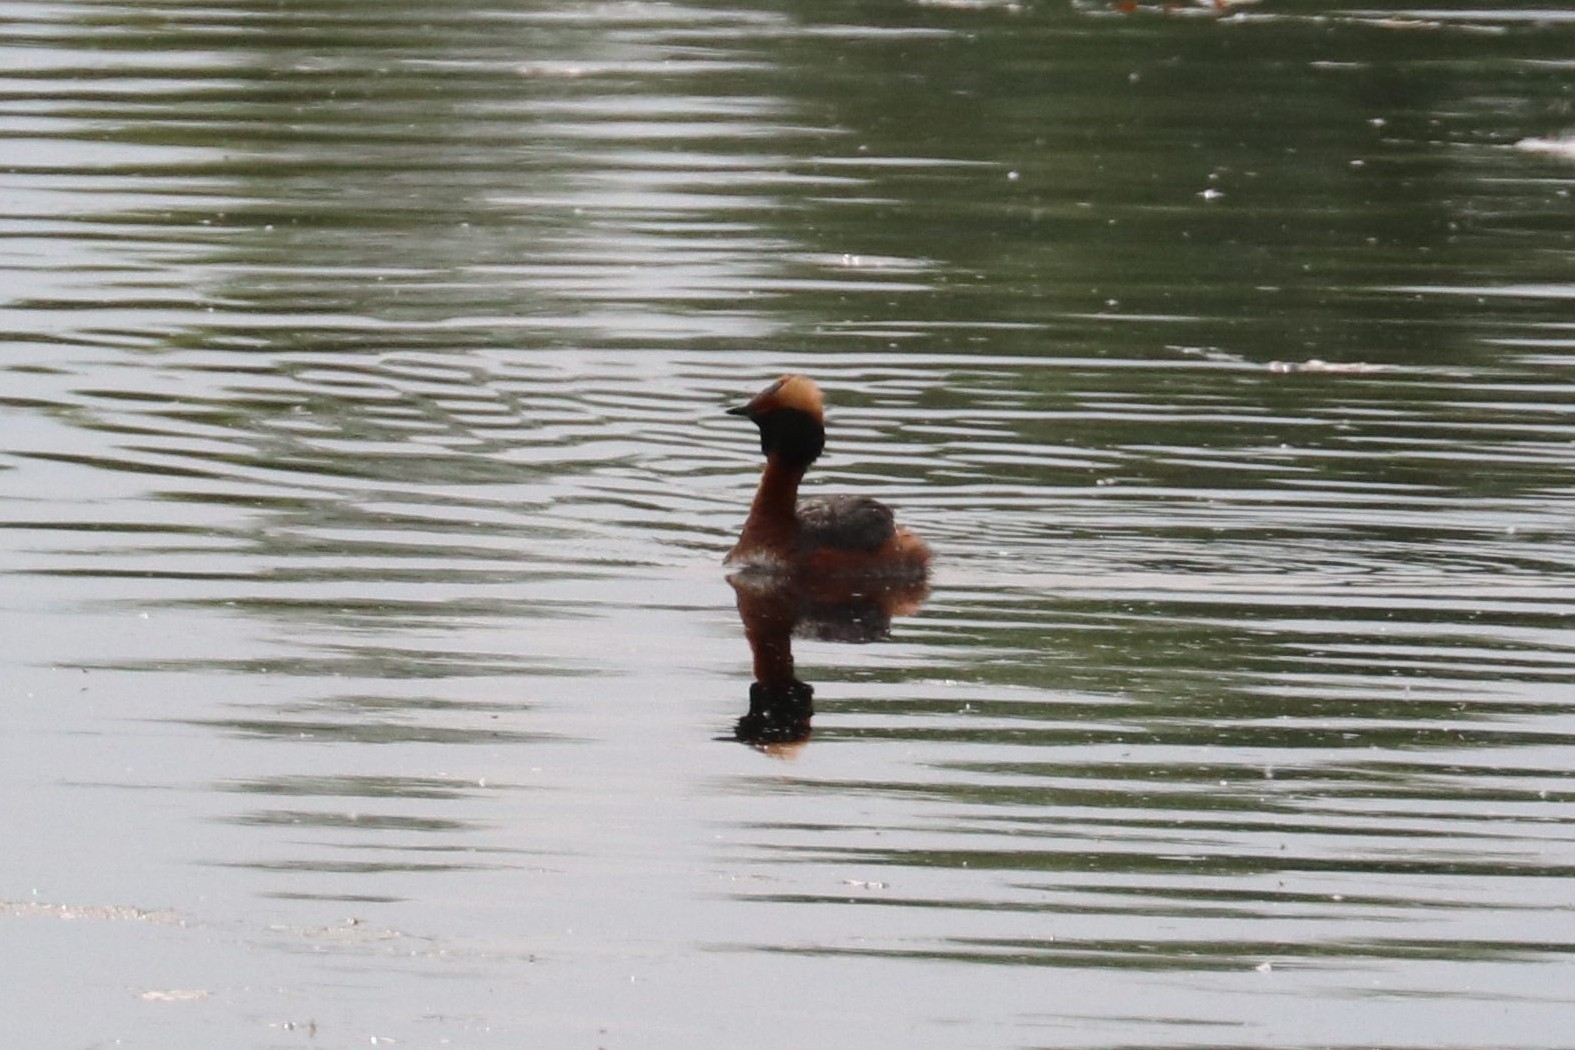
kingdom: Animalia
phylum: Chordata
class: Aves
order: Podicipediformes
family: Podicipedidae
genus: Podiceps
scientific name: Podiceps auritus
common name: Horned grebe
